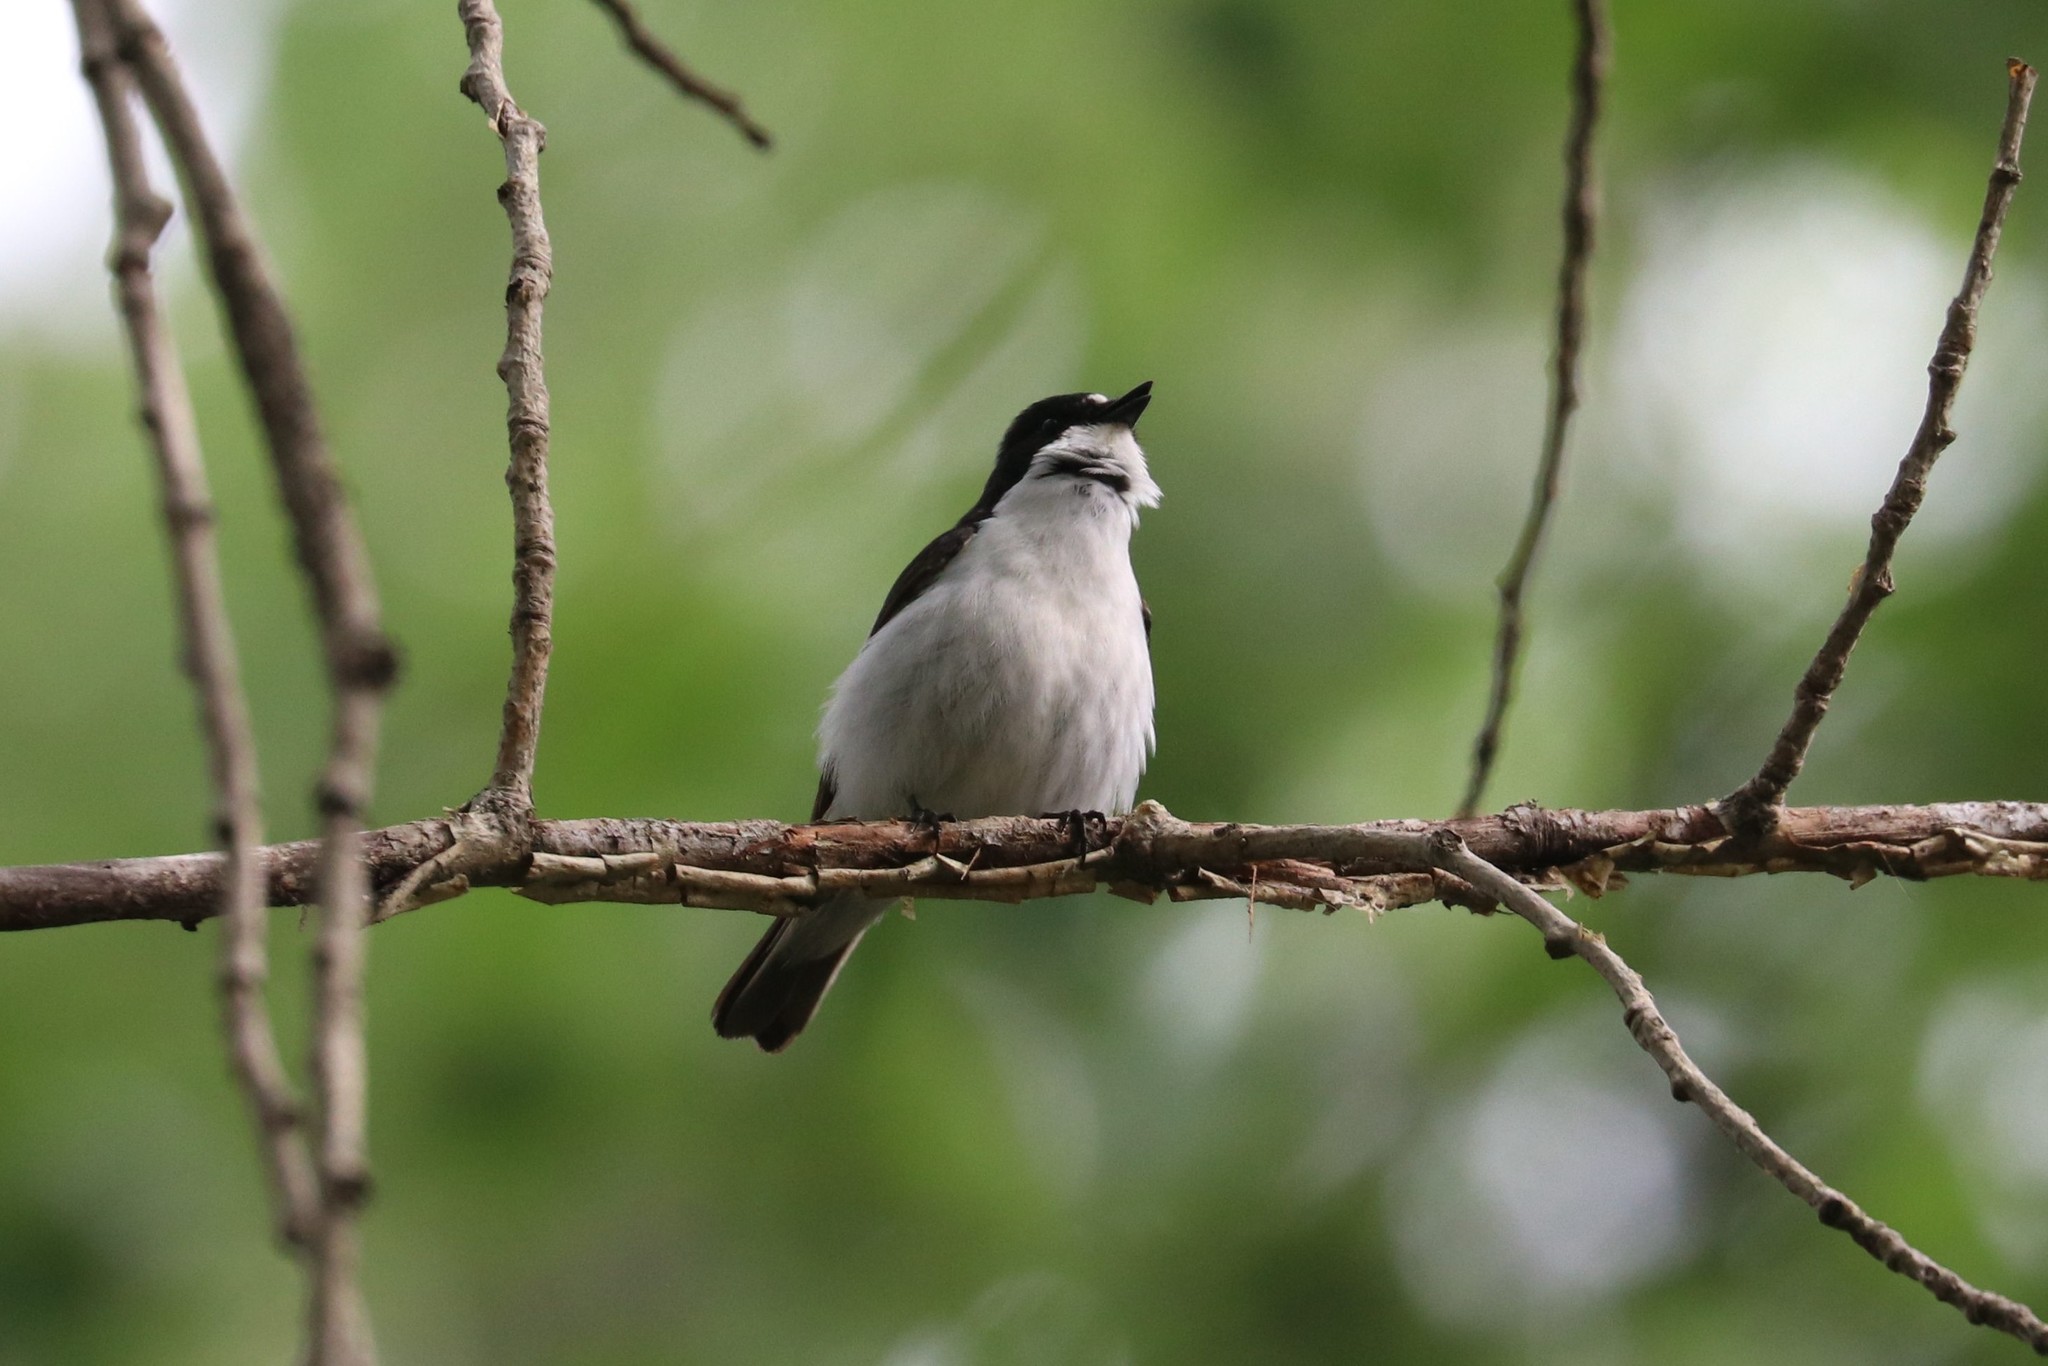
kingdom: Animalia
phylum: Chordata
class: Aves
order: Passeriformes
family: Muscicapidae
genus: Ficedula
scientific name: Ficedula hypoleuca
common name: European pied flycatcher
